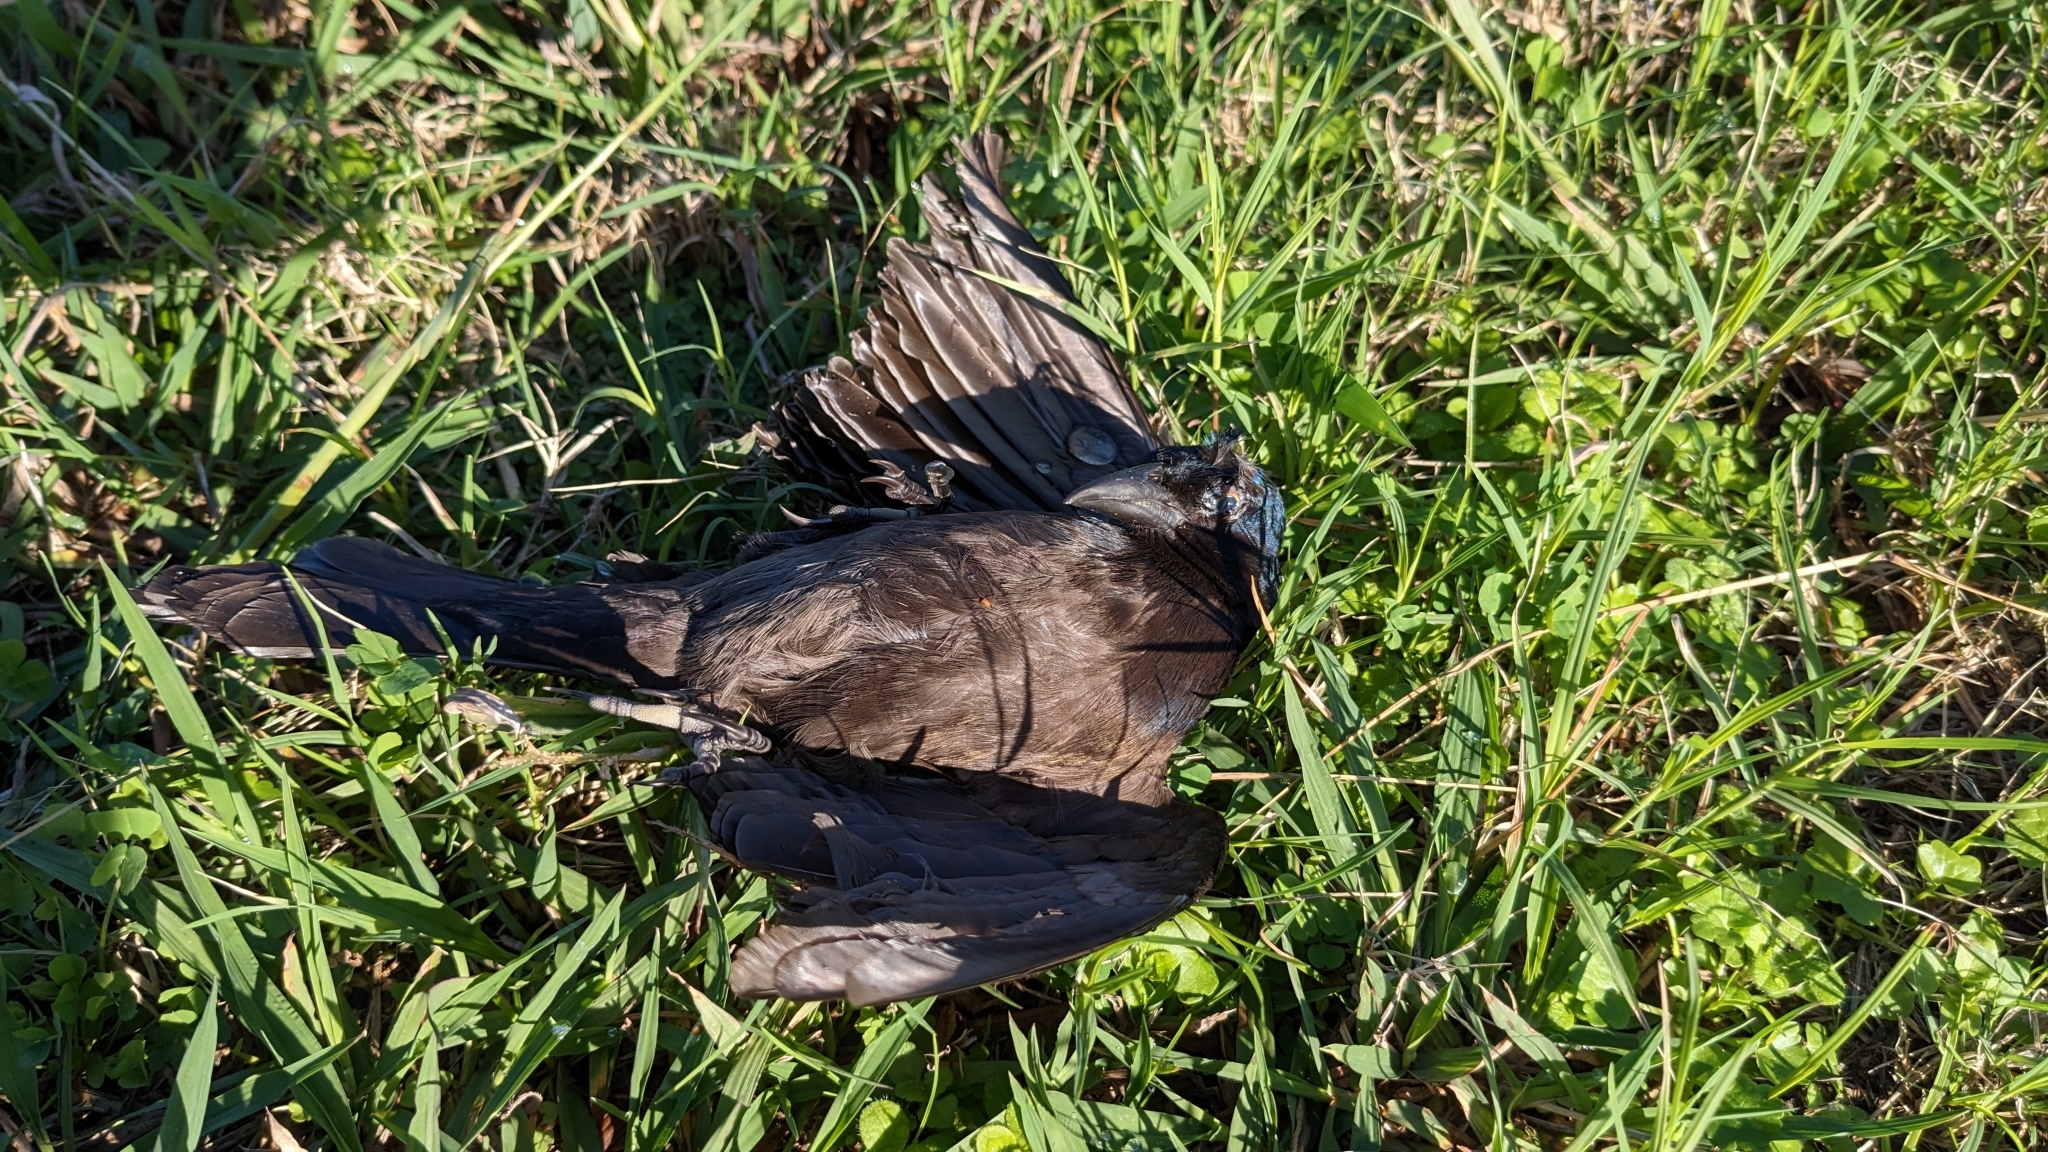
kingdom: Animalia
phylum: Chordata
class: Aves
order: Passeriformes
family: Icteridae
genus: Quiscalus
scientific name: Quiscalus quiscula
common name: Common grackle
